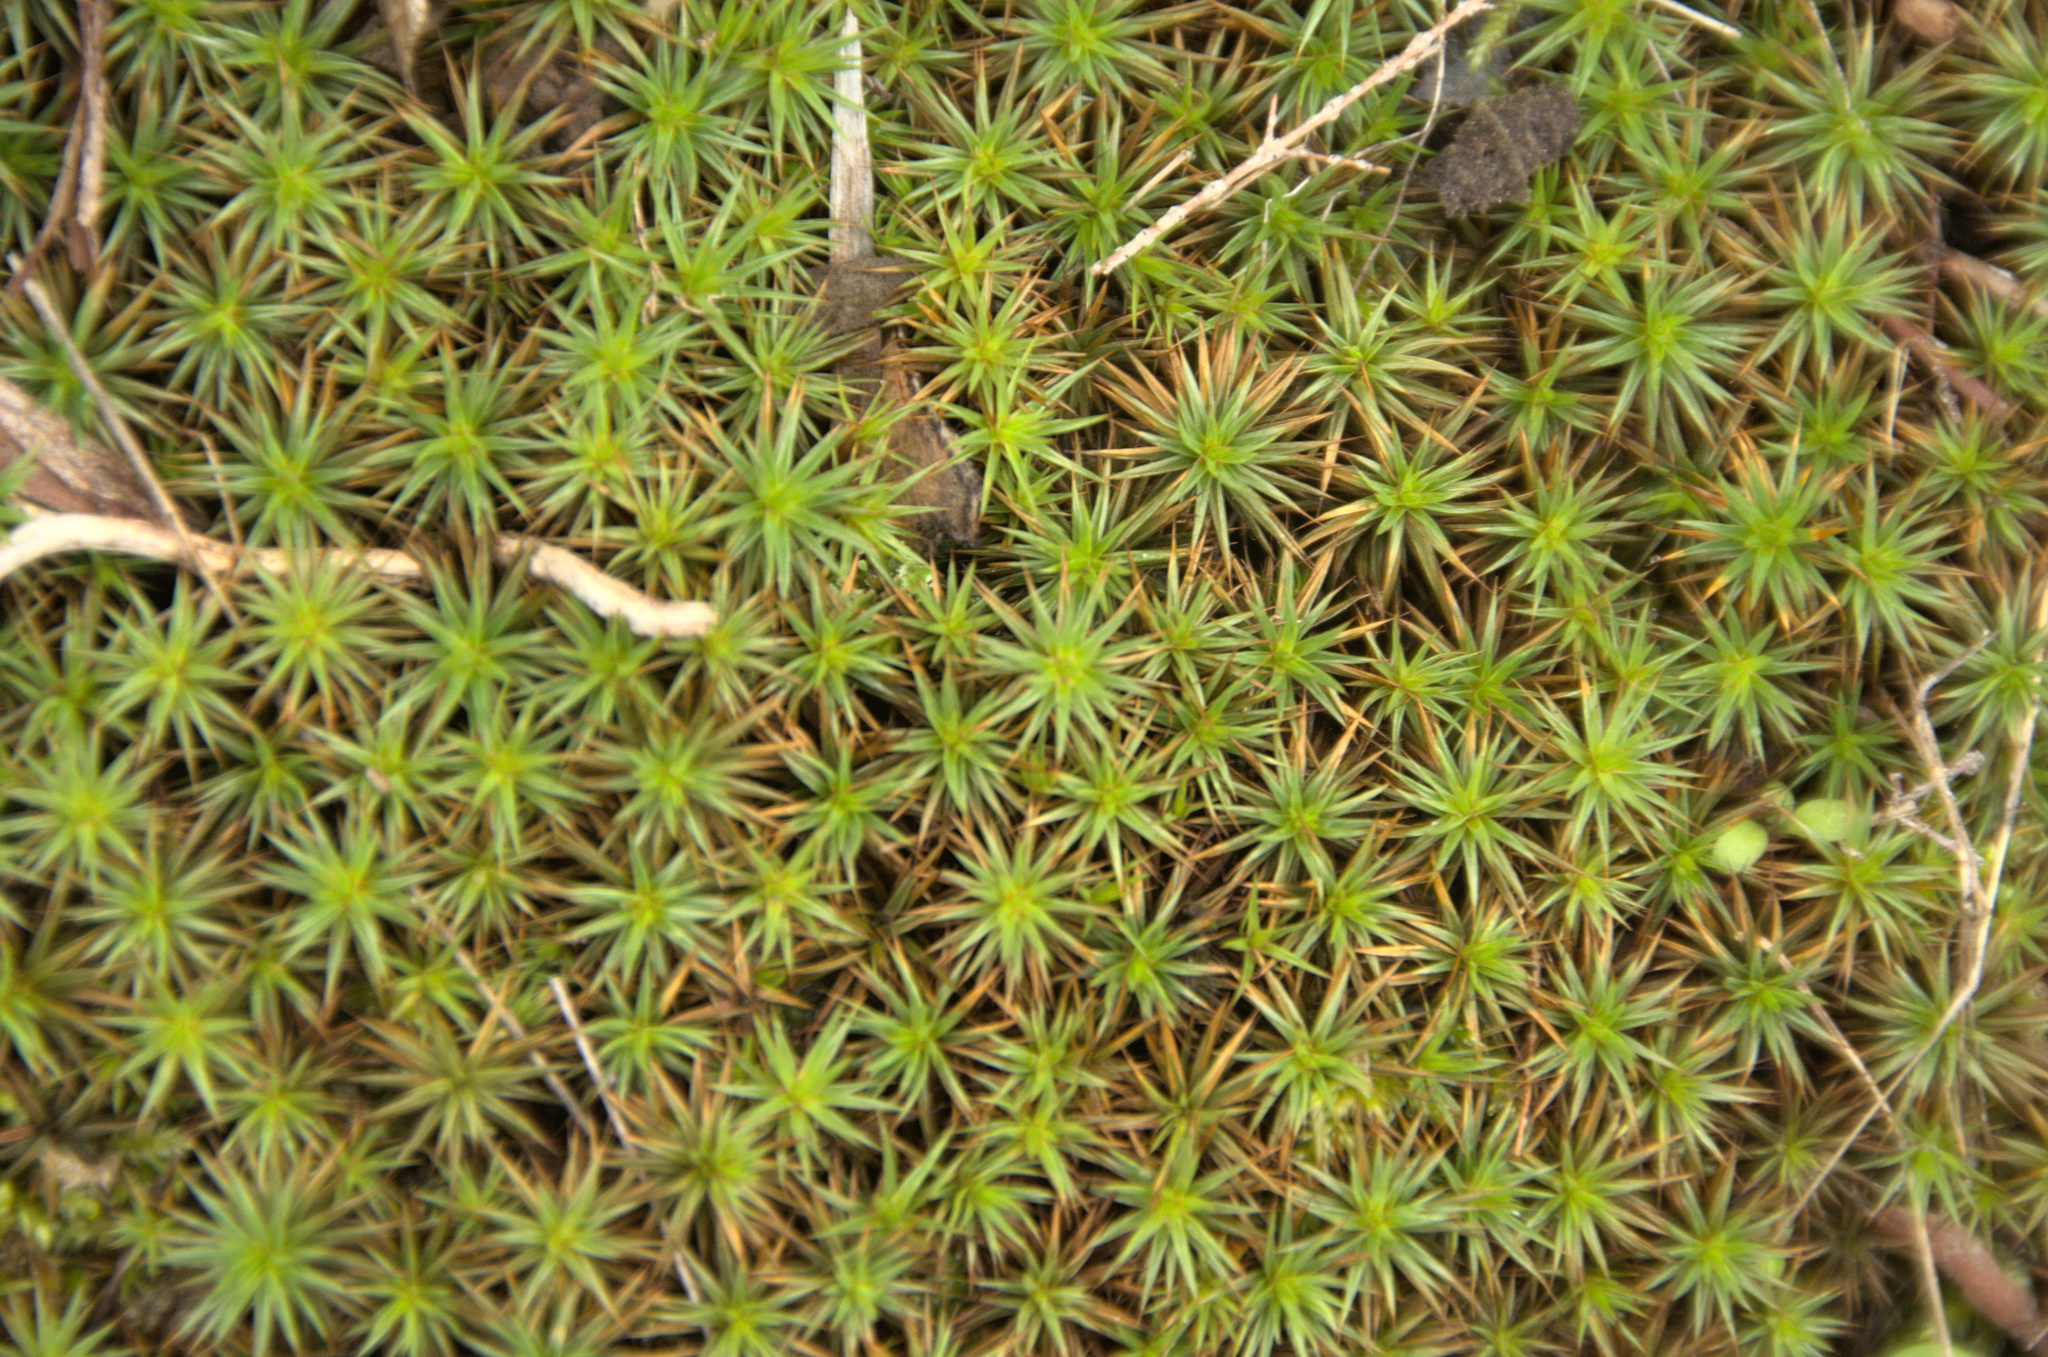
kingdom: Plantae
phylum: Bryophyta
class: Polytrichopsida
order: Polytrichales
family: Polytrichaceae
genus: Polytrichum
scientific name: Polytrichum juniperinum
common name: Juniper haircap moss
